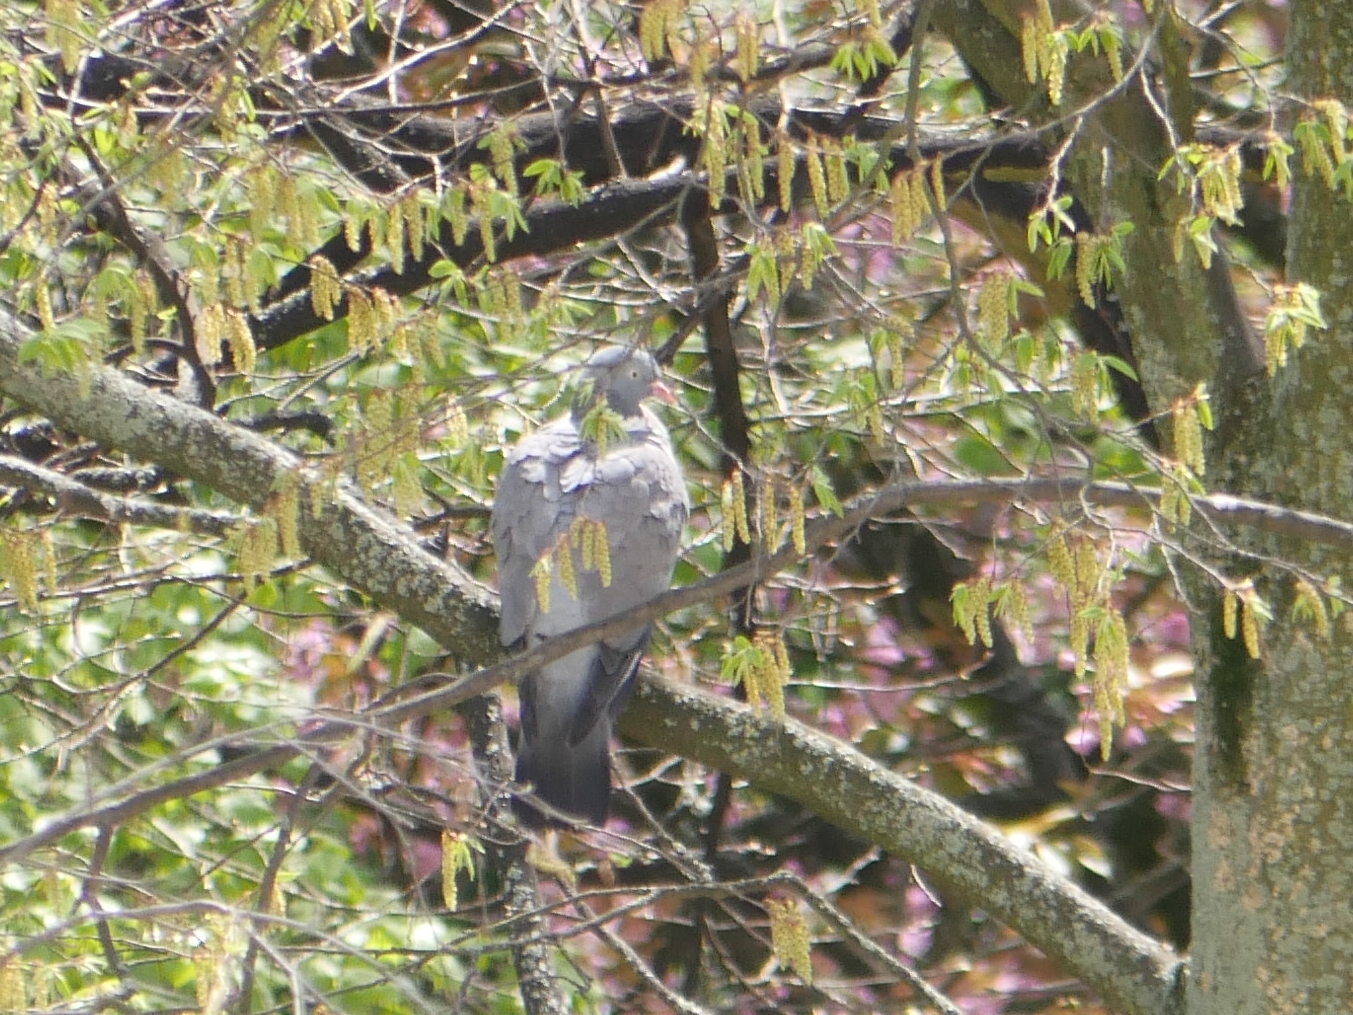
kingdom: Animalia
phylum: Chordata
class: Aves
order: Columbiformes
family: Columbidae
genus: Columba
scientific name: Columba palumbus
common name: Common wood pigeon
